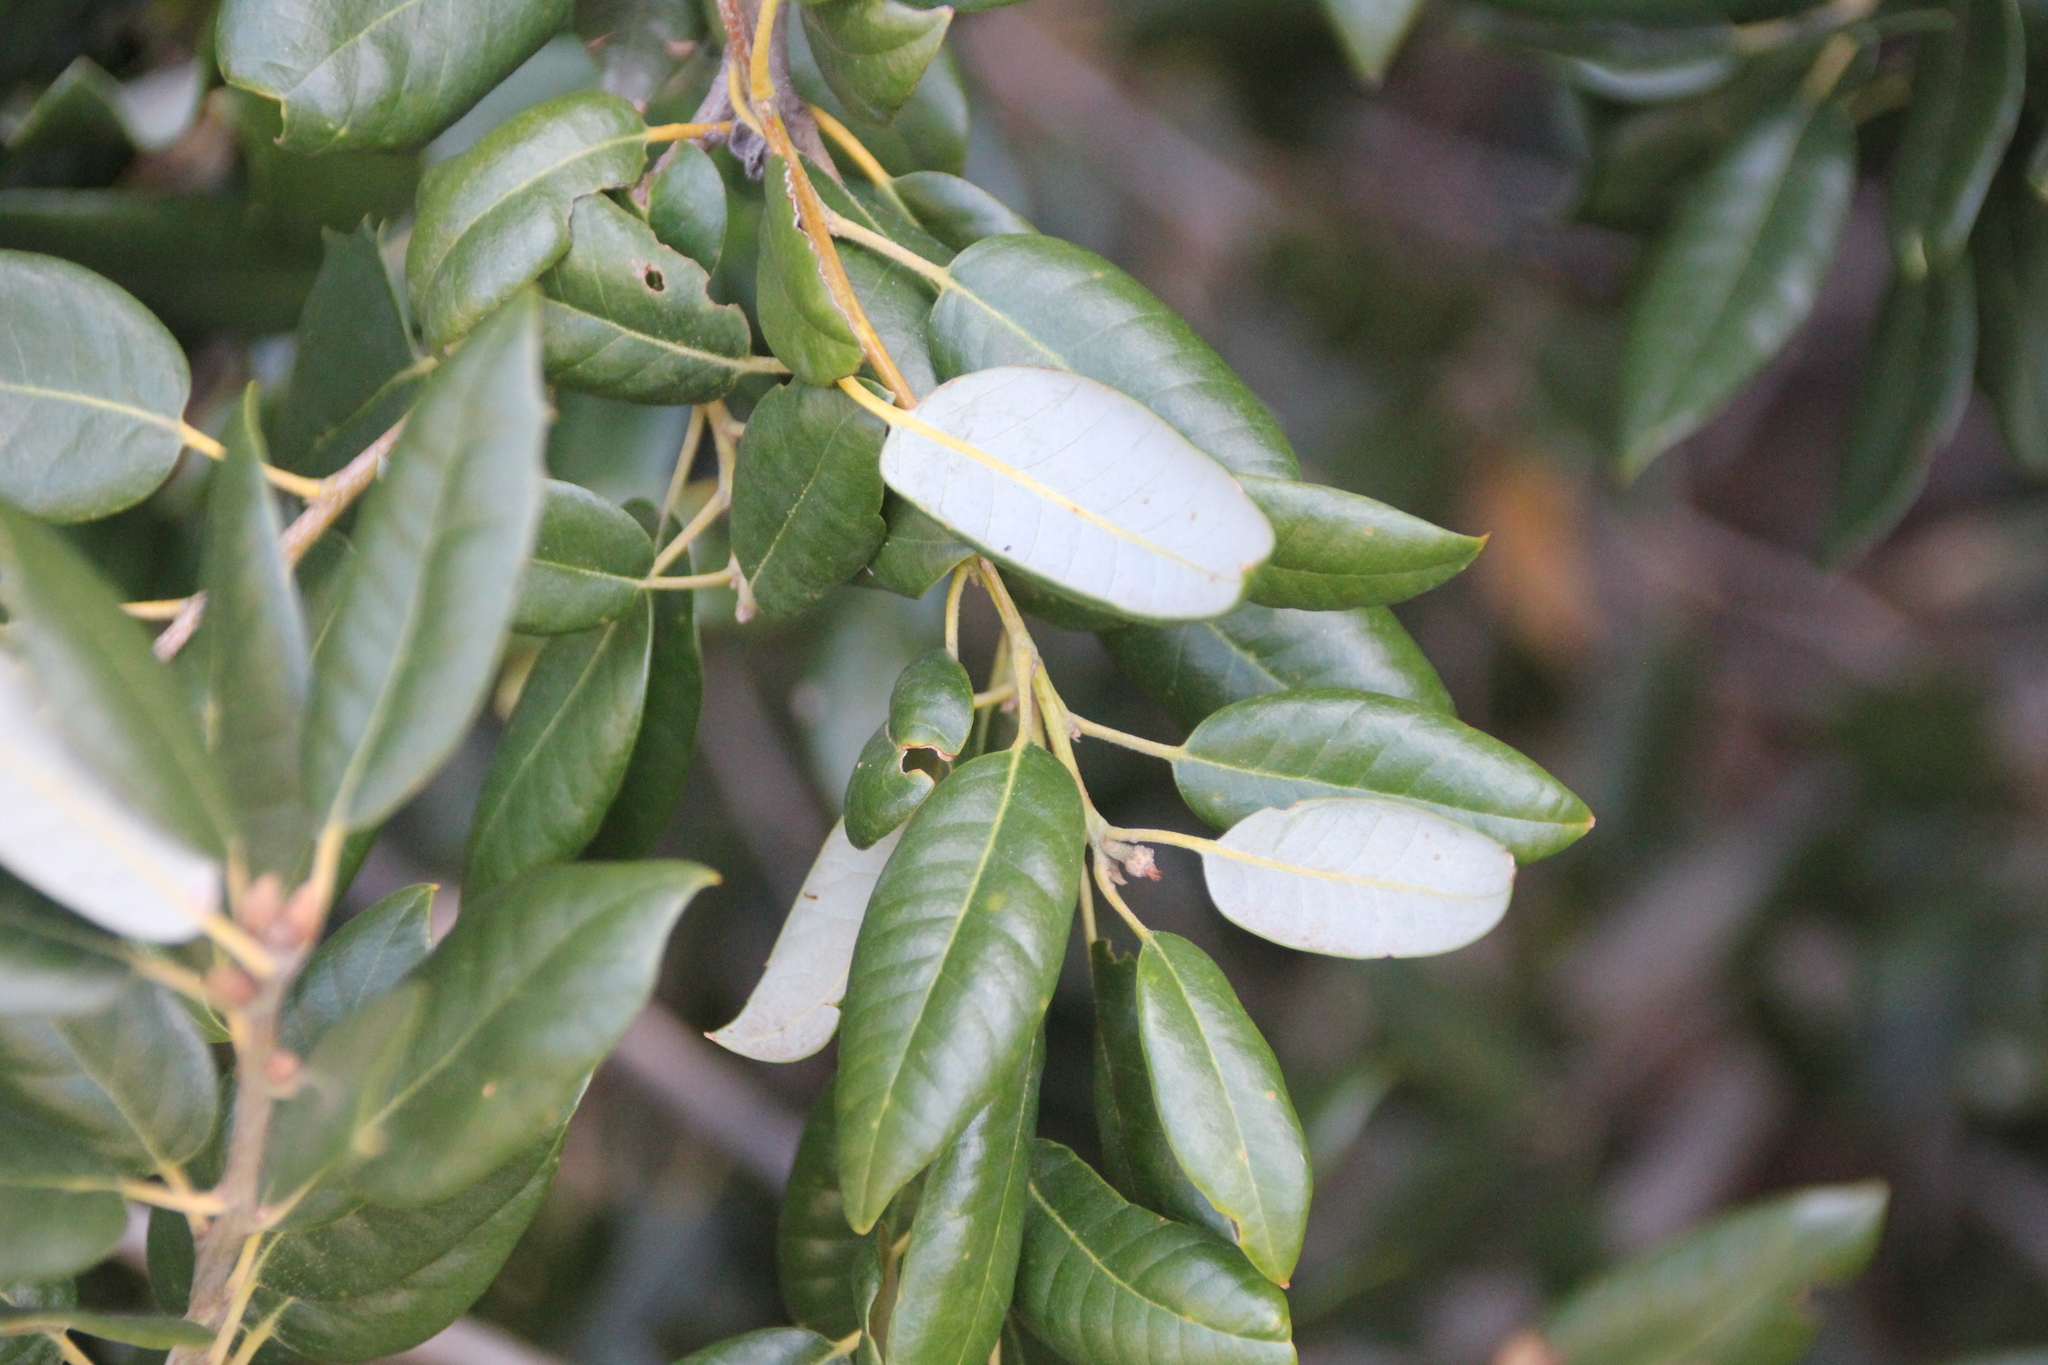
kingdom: Plantae
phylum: Tracheophyta
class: Magnoliopsida
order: Fagales
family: Fagaceae
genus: Quercus
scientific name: Quercus chrysolepis
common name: Canyon live oak
